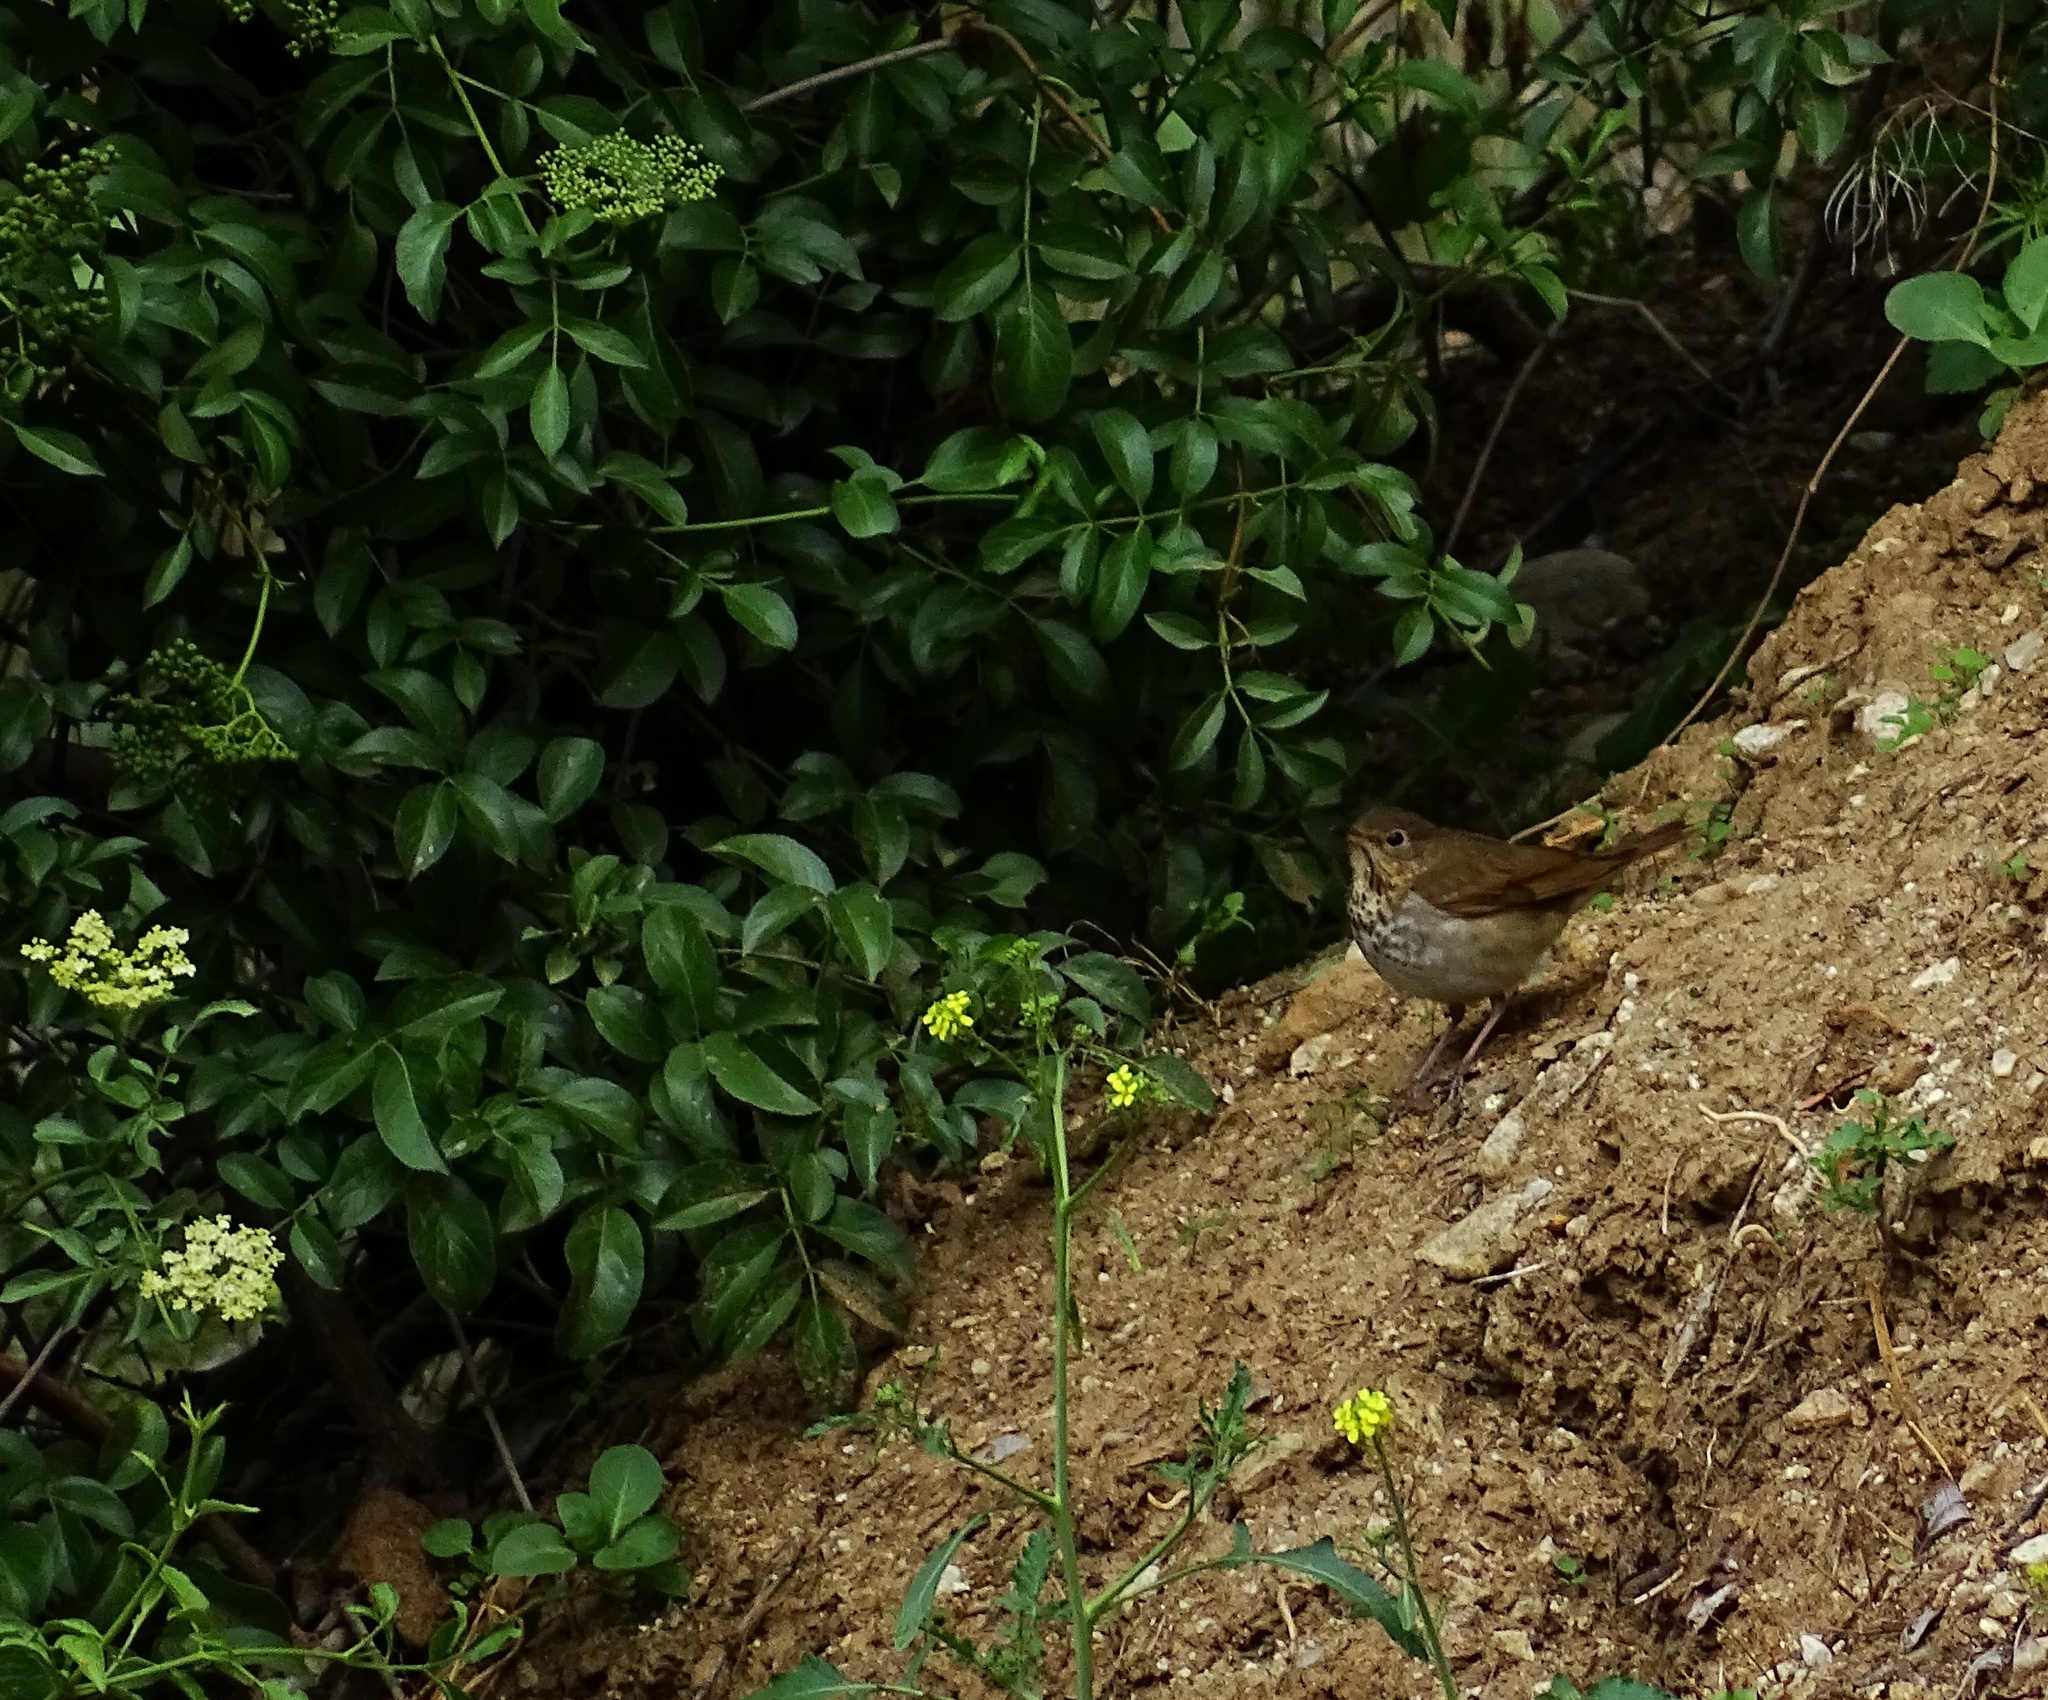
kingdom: Animalia
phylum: Chordata
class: Aves
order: Passeriformes
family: Turdidae
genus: Catharus
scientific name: Catharus ustulatus
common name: Swainson's thrush
